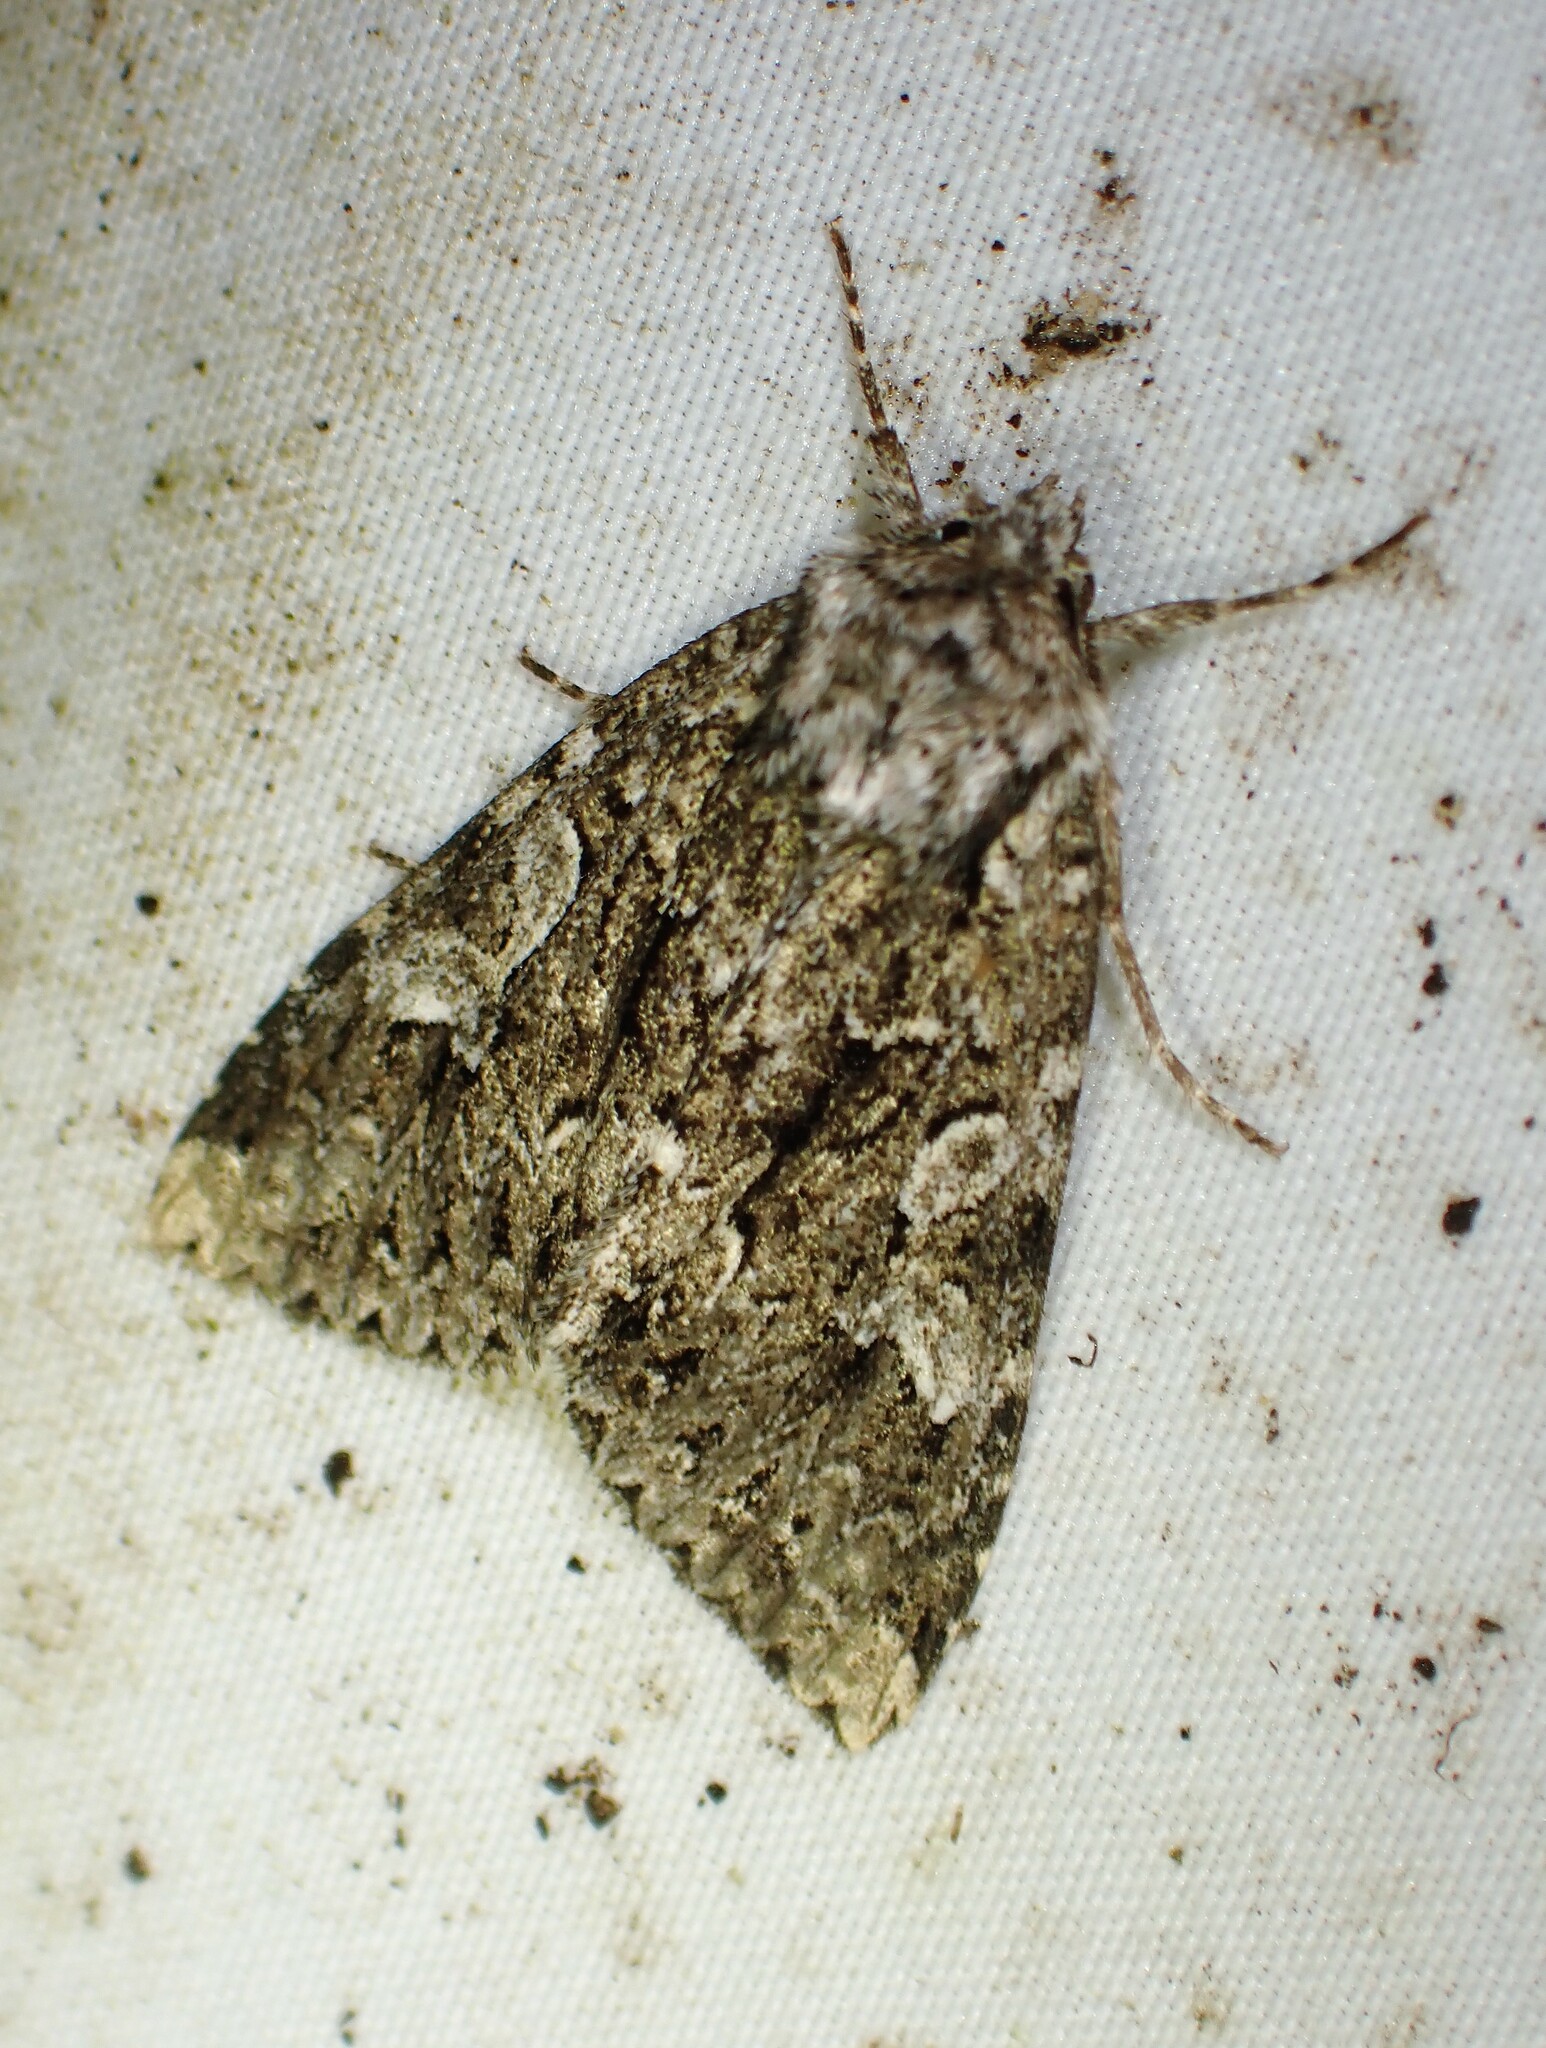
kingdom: Animalia
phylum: Arthropoda
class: Insecta
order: Lepidoptera
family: Noctuidae
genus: Platypolia
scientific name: Platypolia anceps
